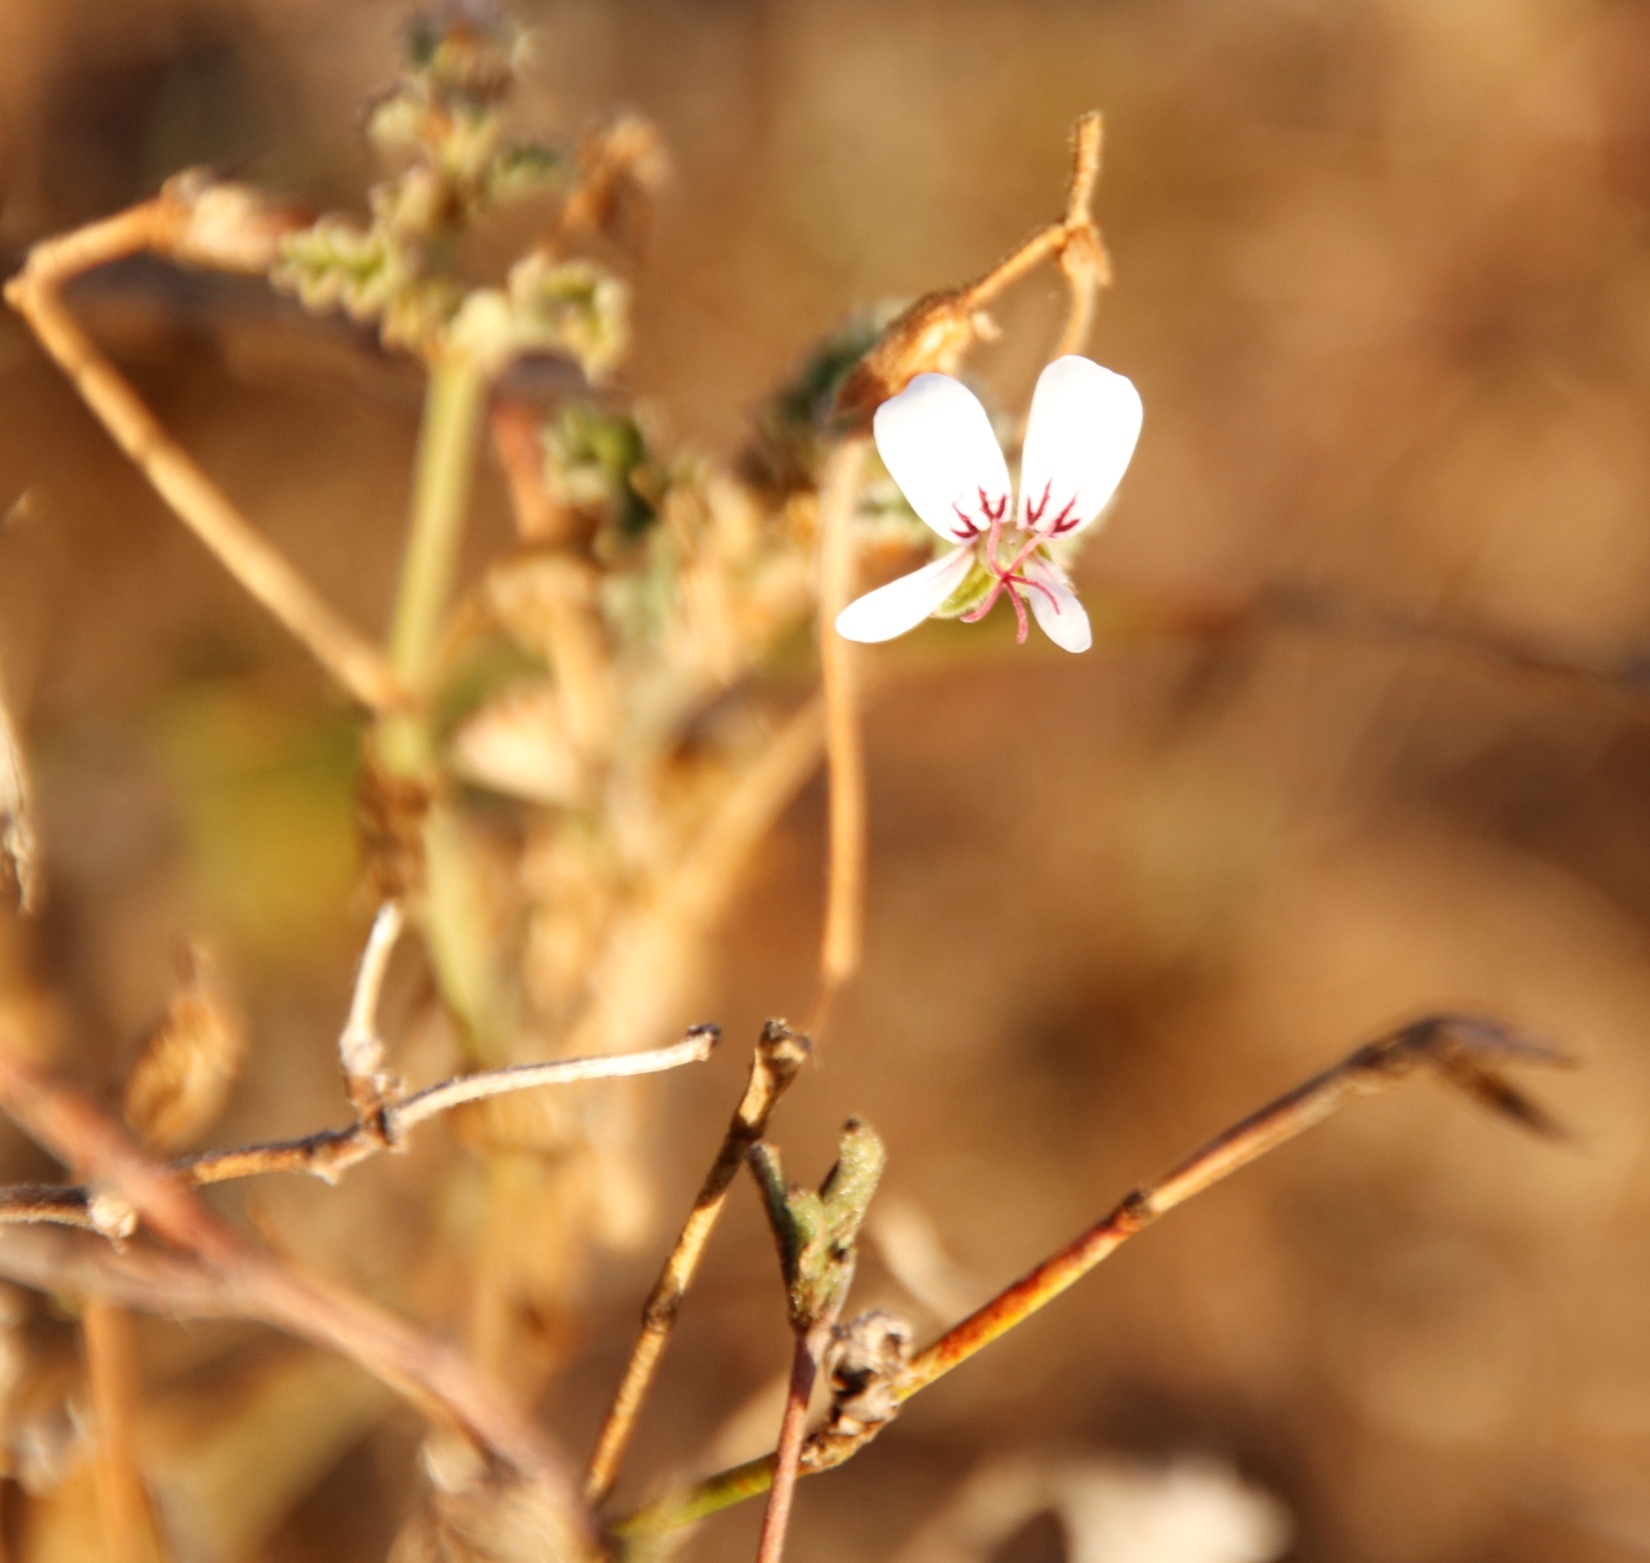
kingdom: Plantae
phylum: Tracheophyta
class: Magnoliopsida
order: Geraniales
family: Geraniaceae
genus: Pelargonium
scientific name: Pelargonium candicans
